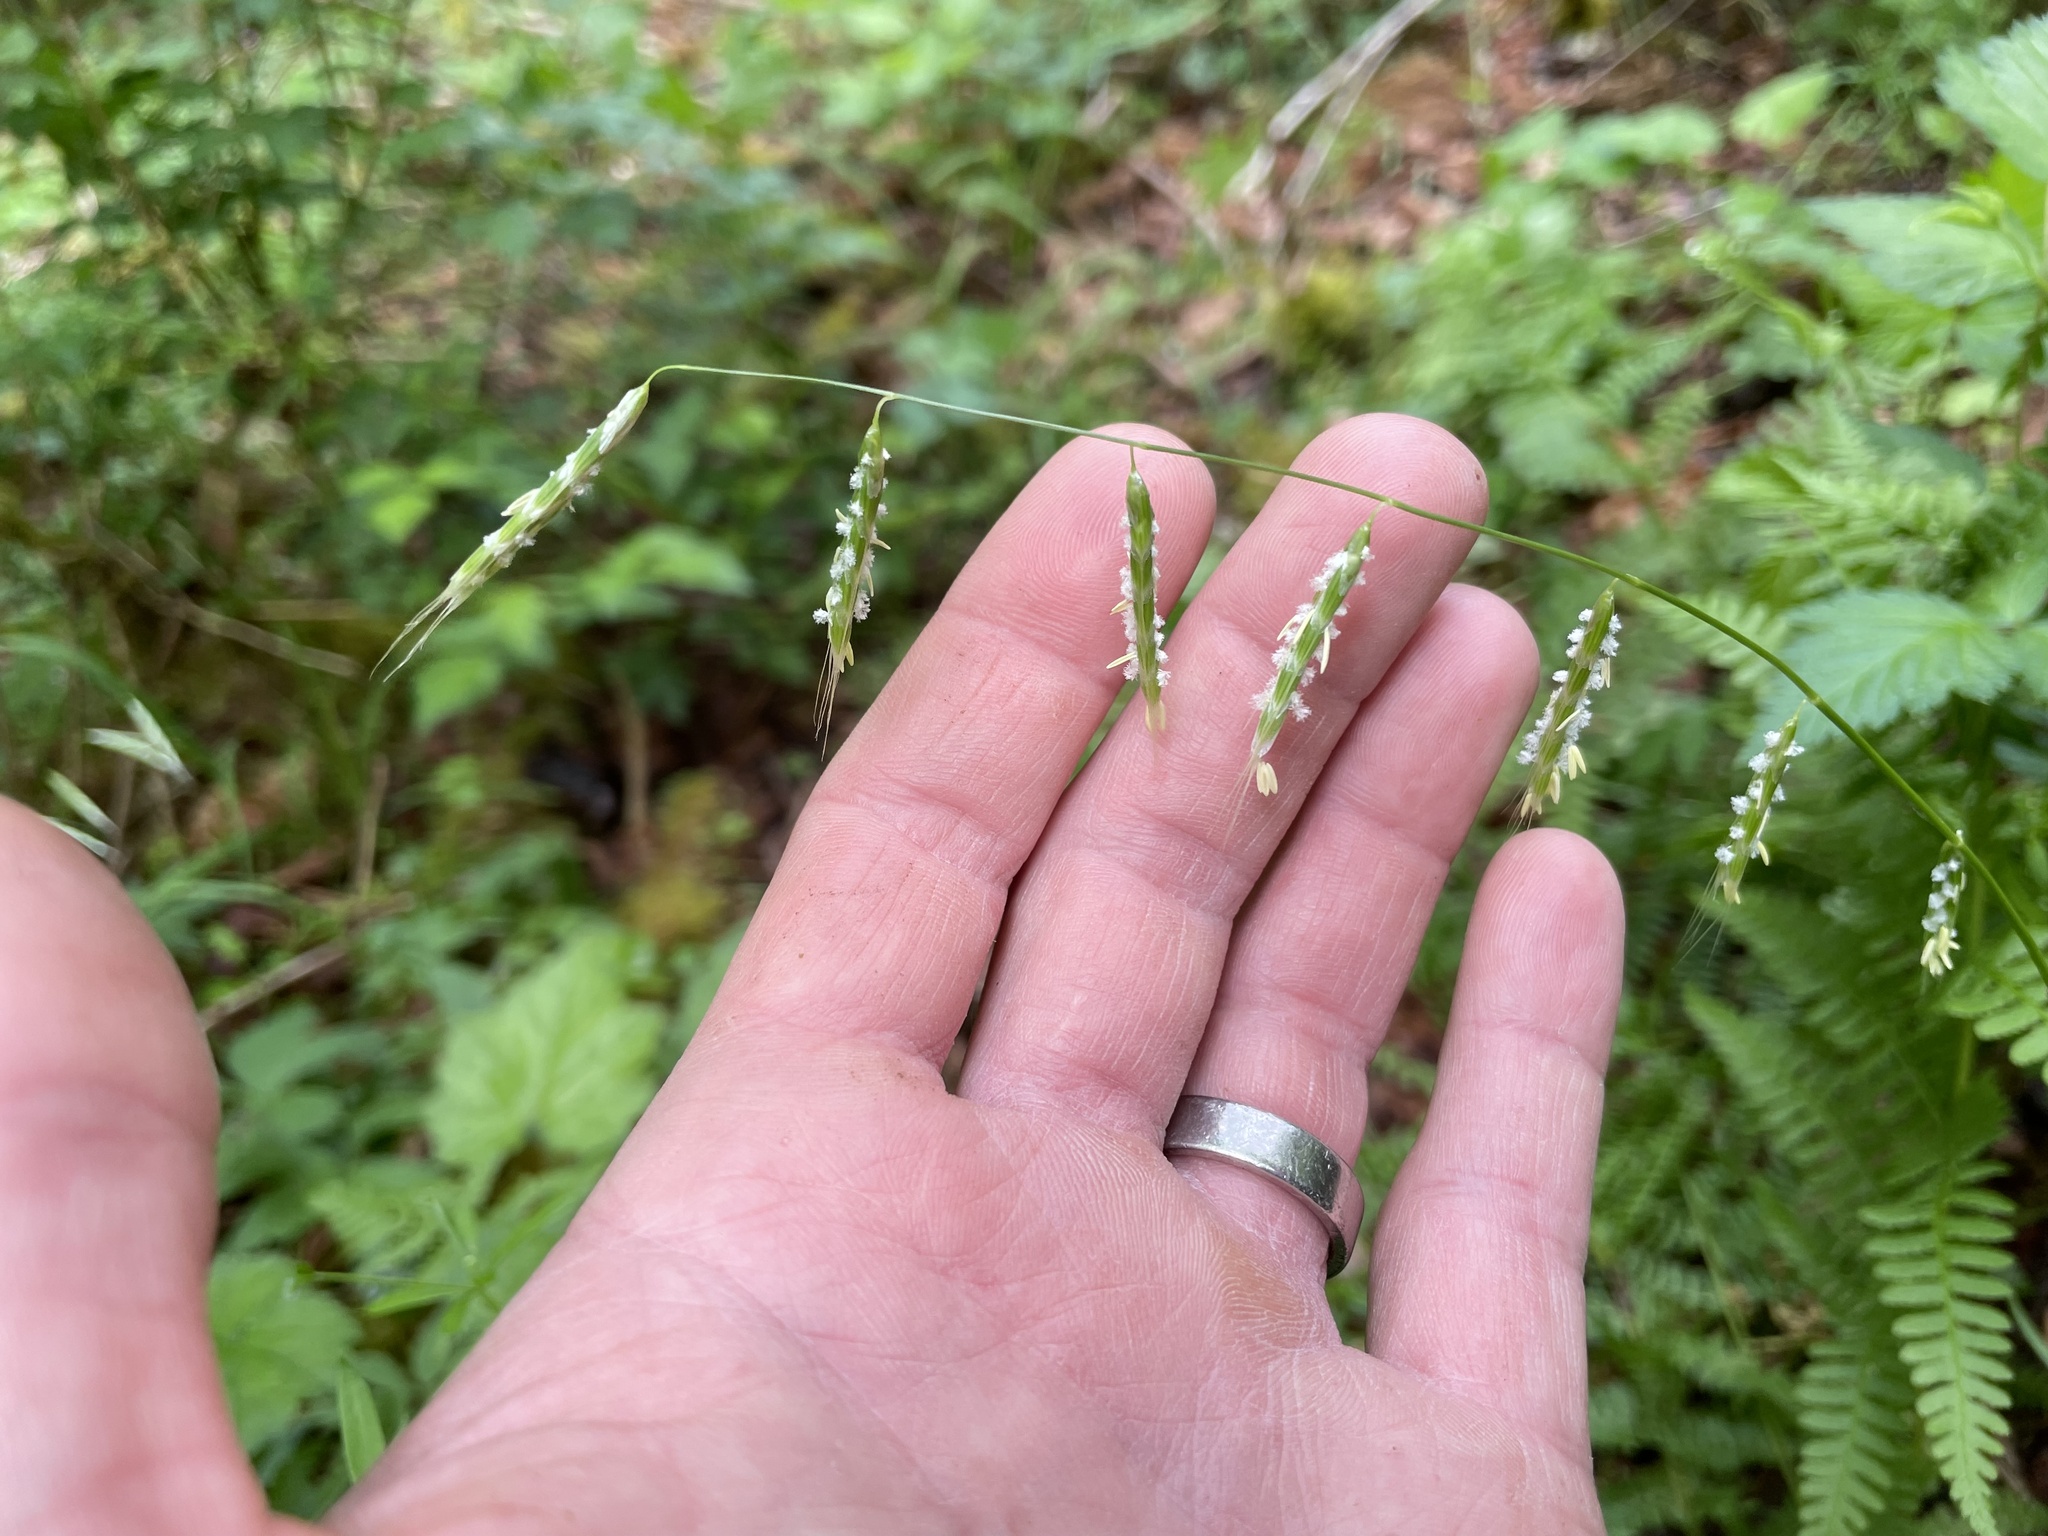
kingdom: Plantae
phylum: Tracheophyta
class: Liliopsida
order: Poales
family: Poaceae
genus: Pleuropogon
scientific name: Pleuropogon refractus
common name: Nodding false semaphoregrass
